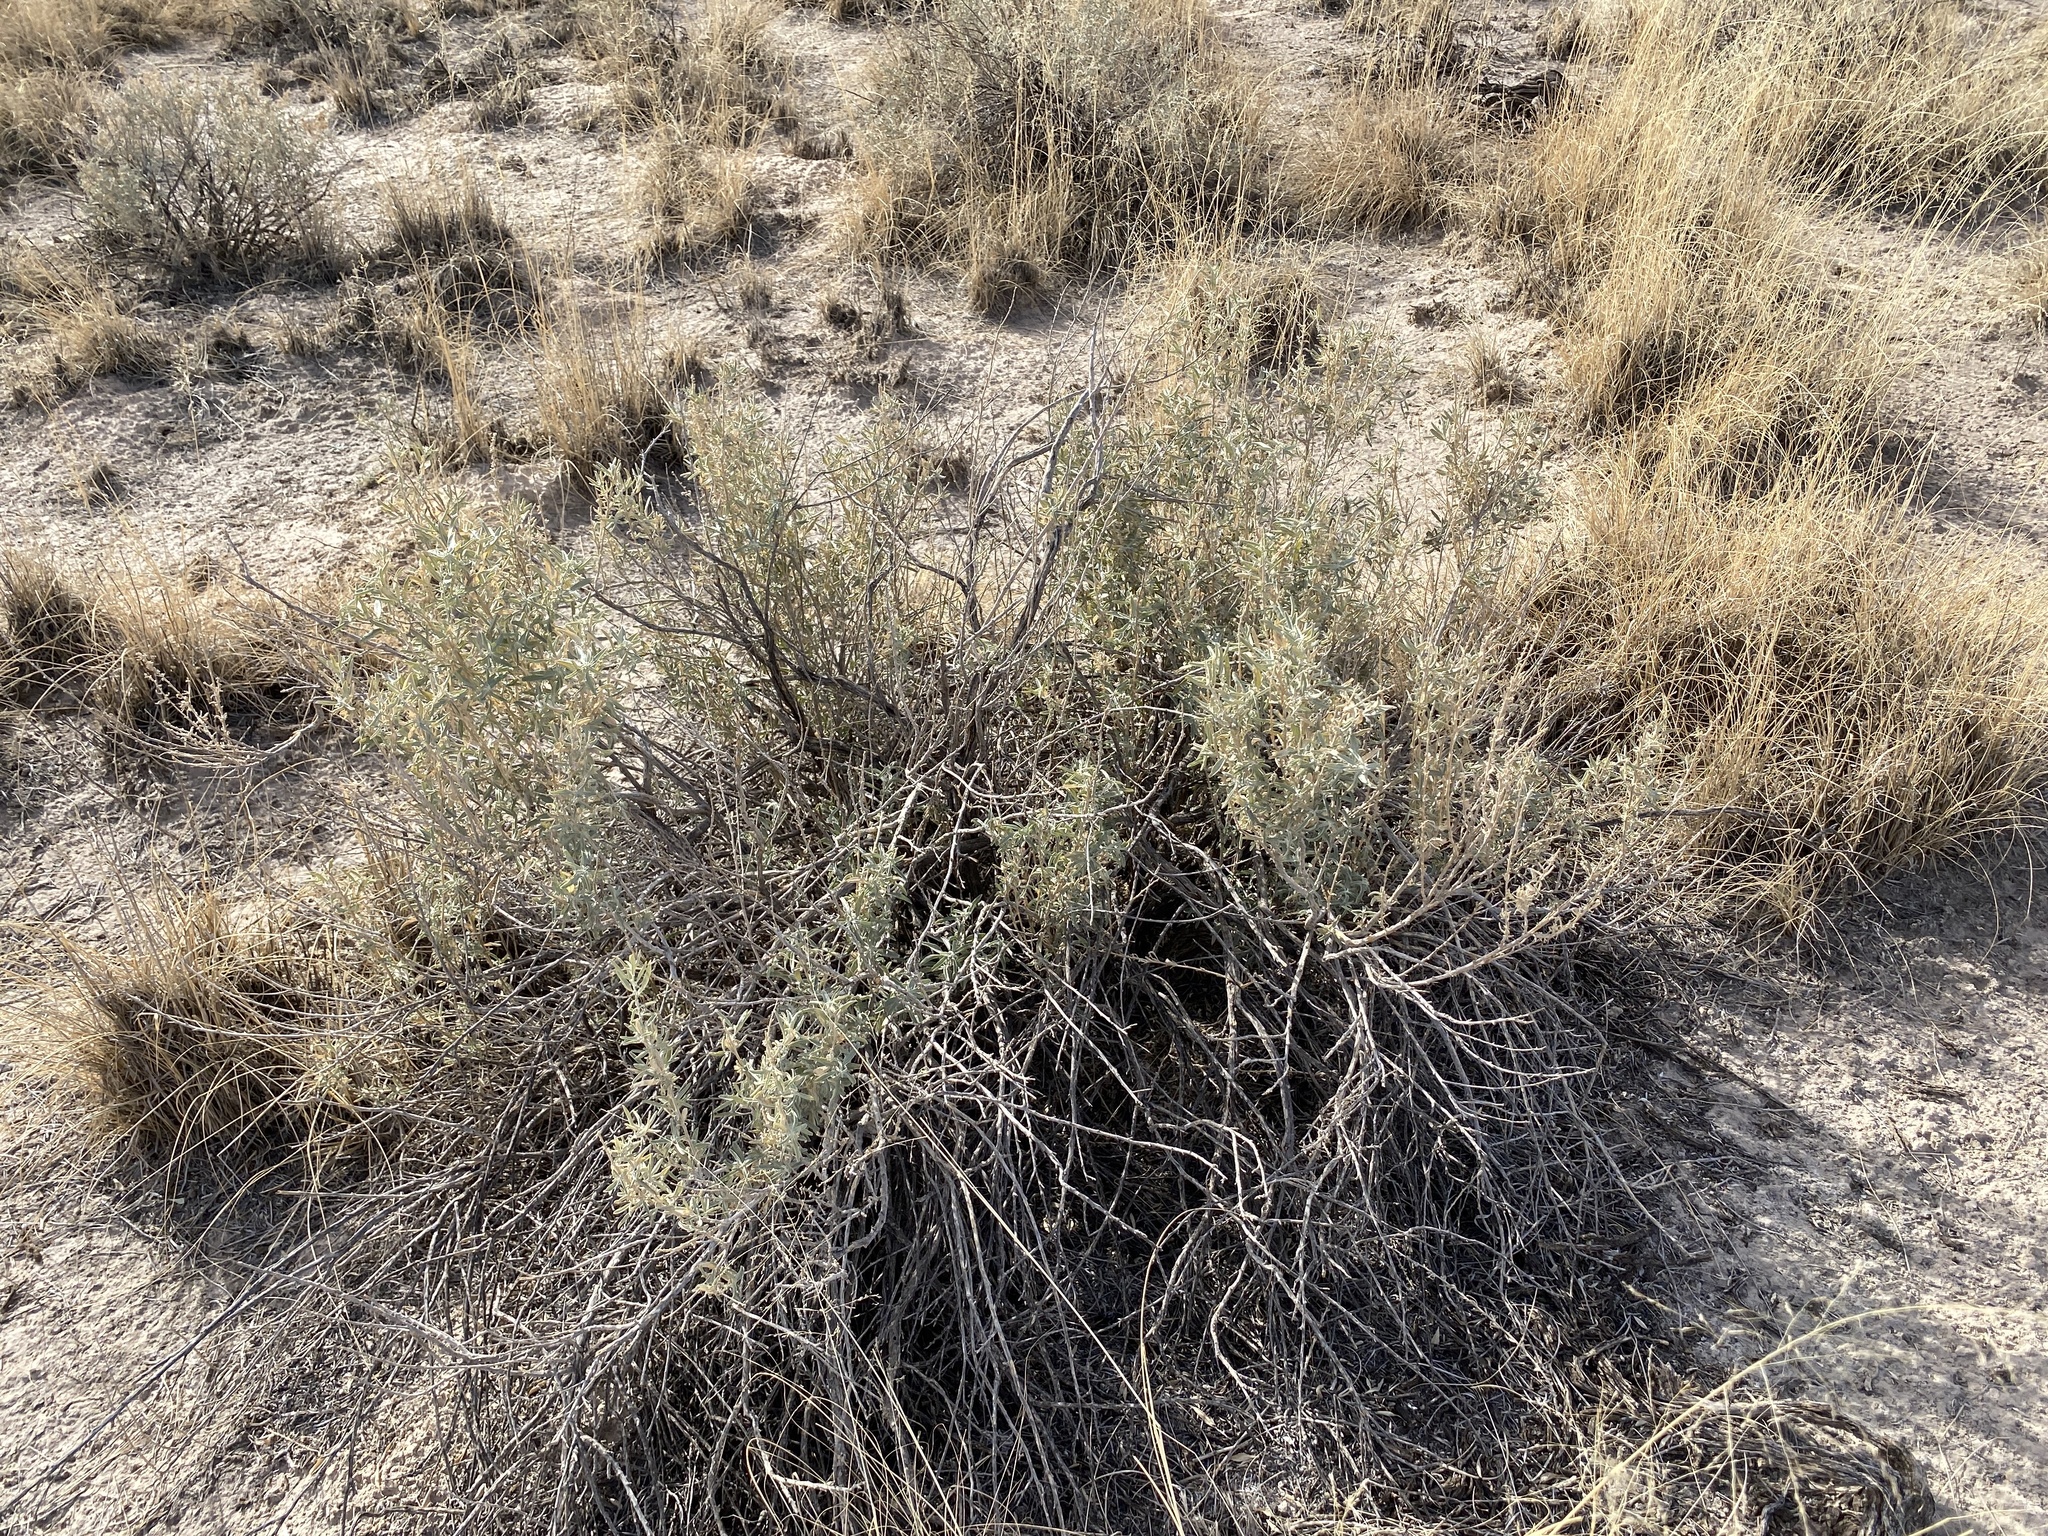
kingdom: Plantae
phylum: Tracheophyta
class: Magnoliopsida
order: Caryophyllales
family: Amaranthaceae
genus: Atriplex
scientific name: Atriplex canescens
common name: Four-wing saltbush
